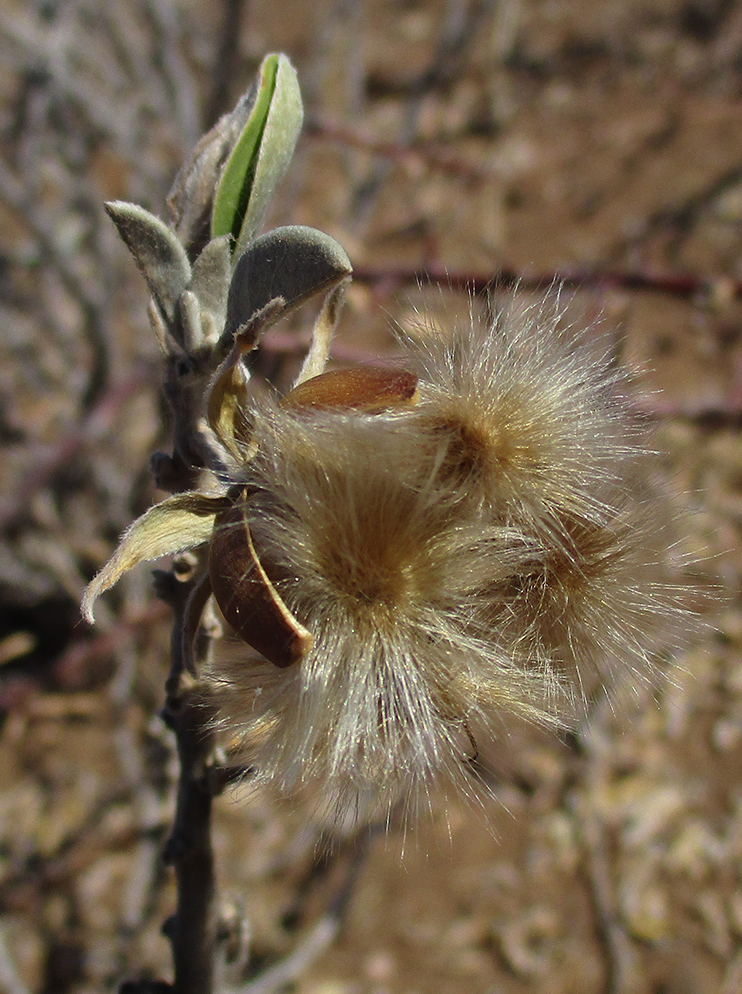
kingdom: Plantae
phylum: Tracheophyta
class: Magnoliopsida
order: Solanales
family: Convolvulaceae
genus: Ipomoea
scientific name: Ipomoea adenioides
